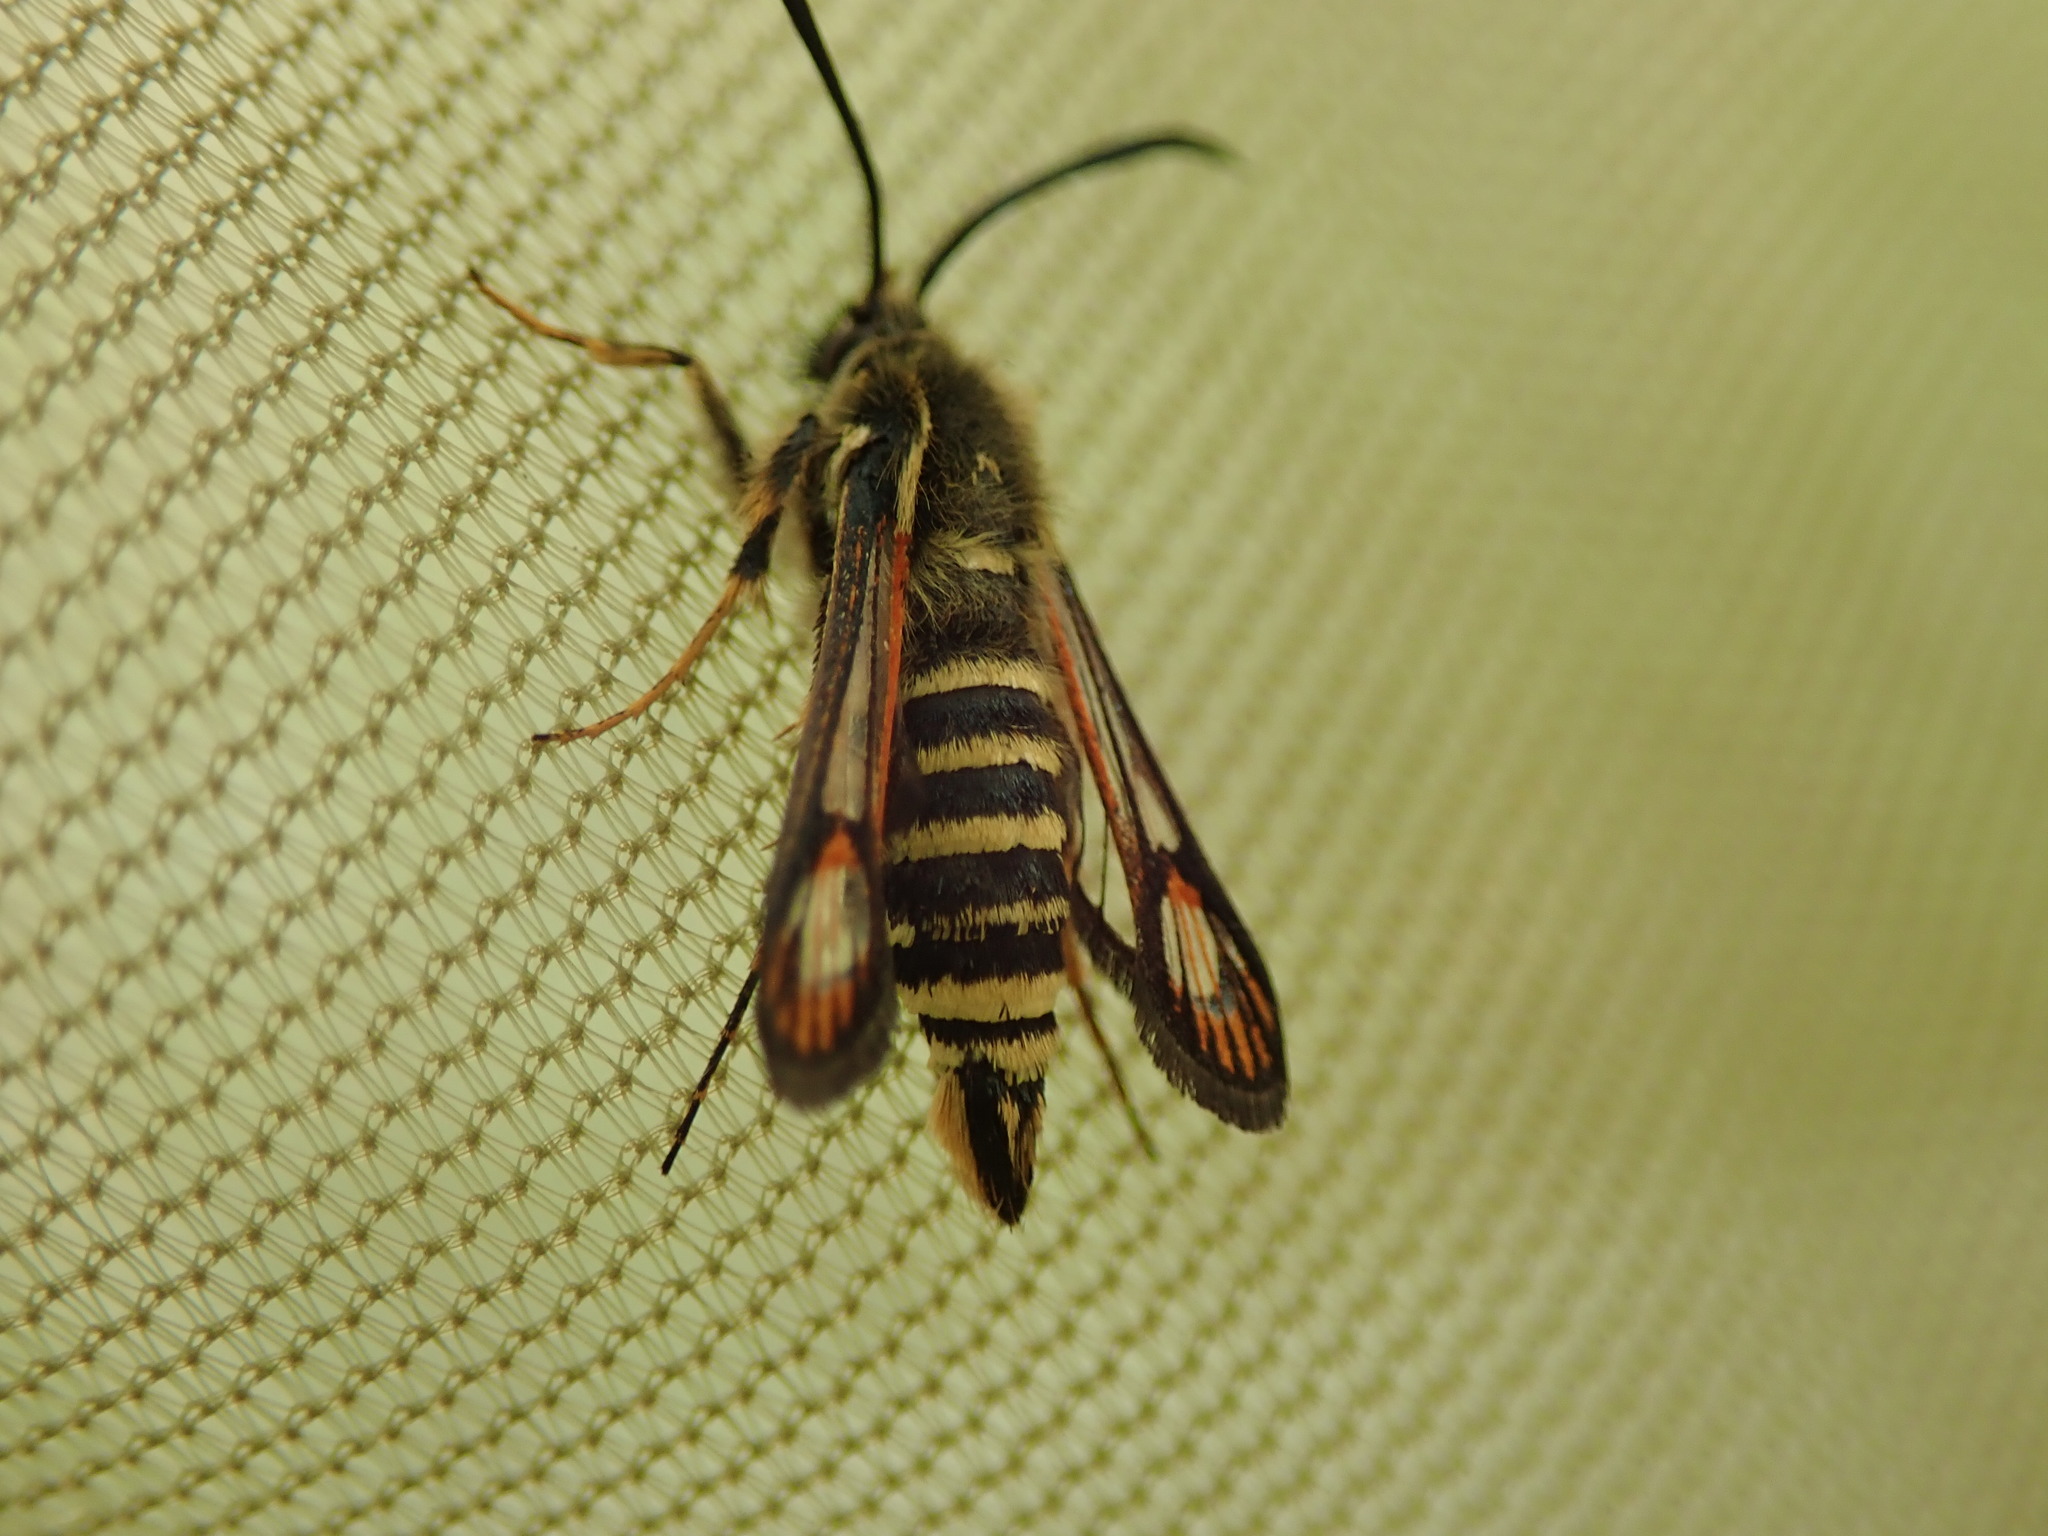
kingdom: Animalia
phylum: Arthropoda
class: Insecta
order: Lepidoptera
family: Sesiidae
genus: Bembecia
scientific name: Bembecia ichneumoniformis
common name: Six-belted clearwing
